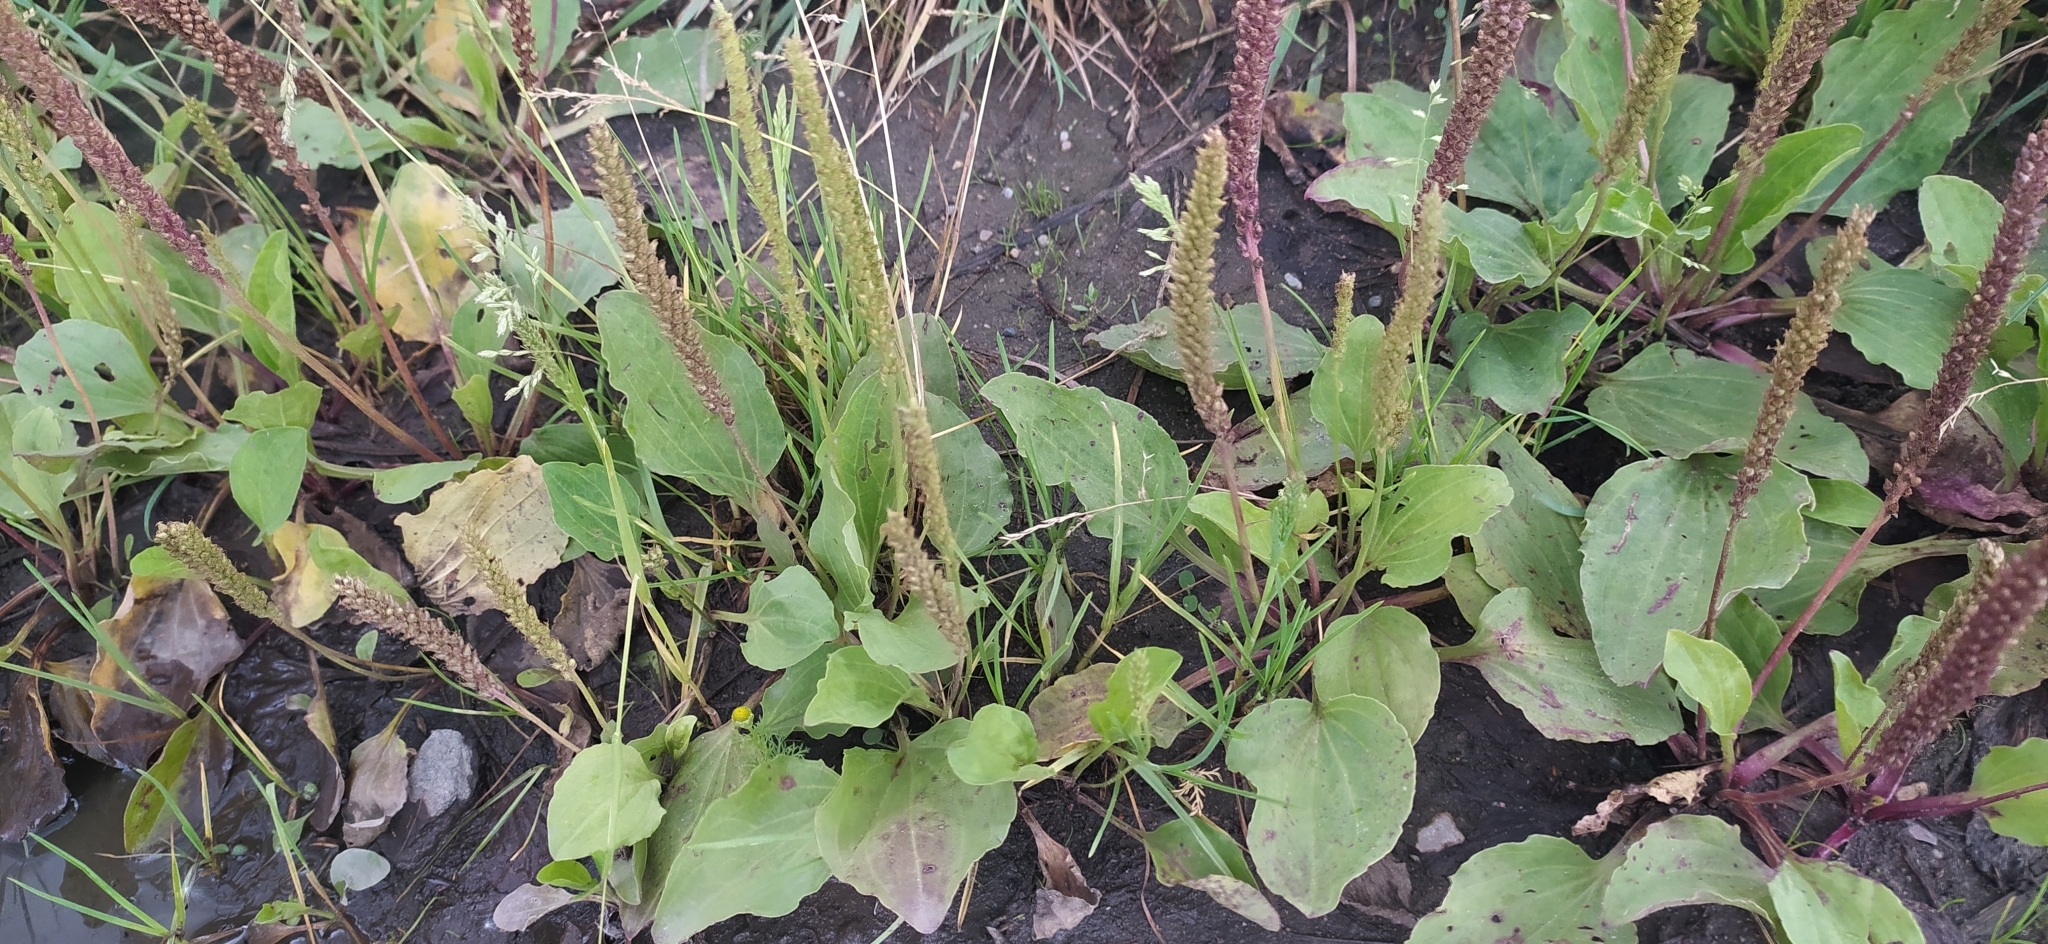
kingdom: Plantae
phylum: Tracheophyta
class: Magnoliopsida
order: Lamiales
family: Plantaginaceae
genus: Plantago
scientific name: Plantago major
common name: Common plantain
